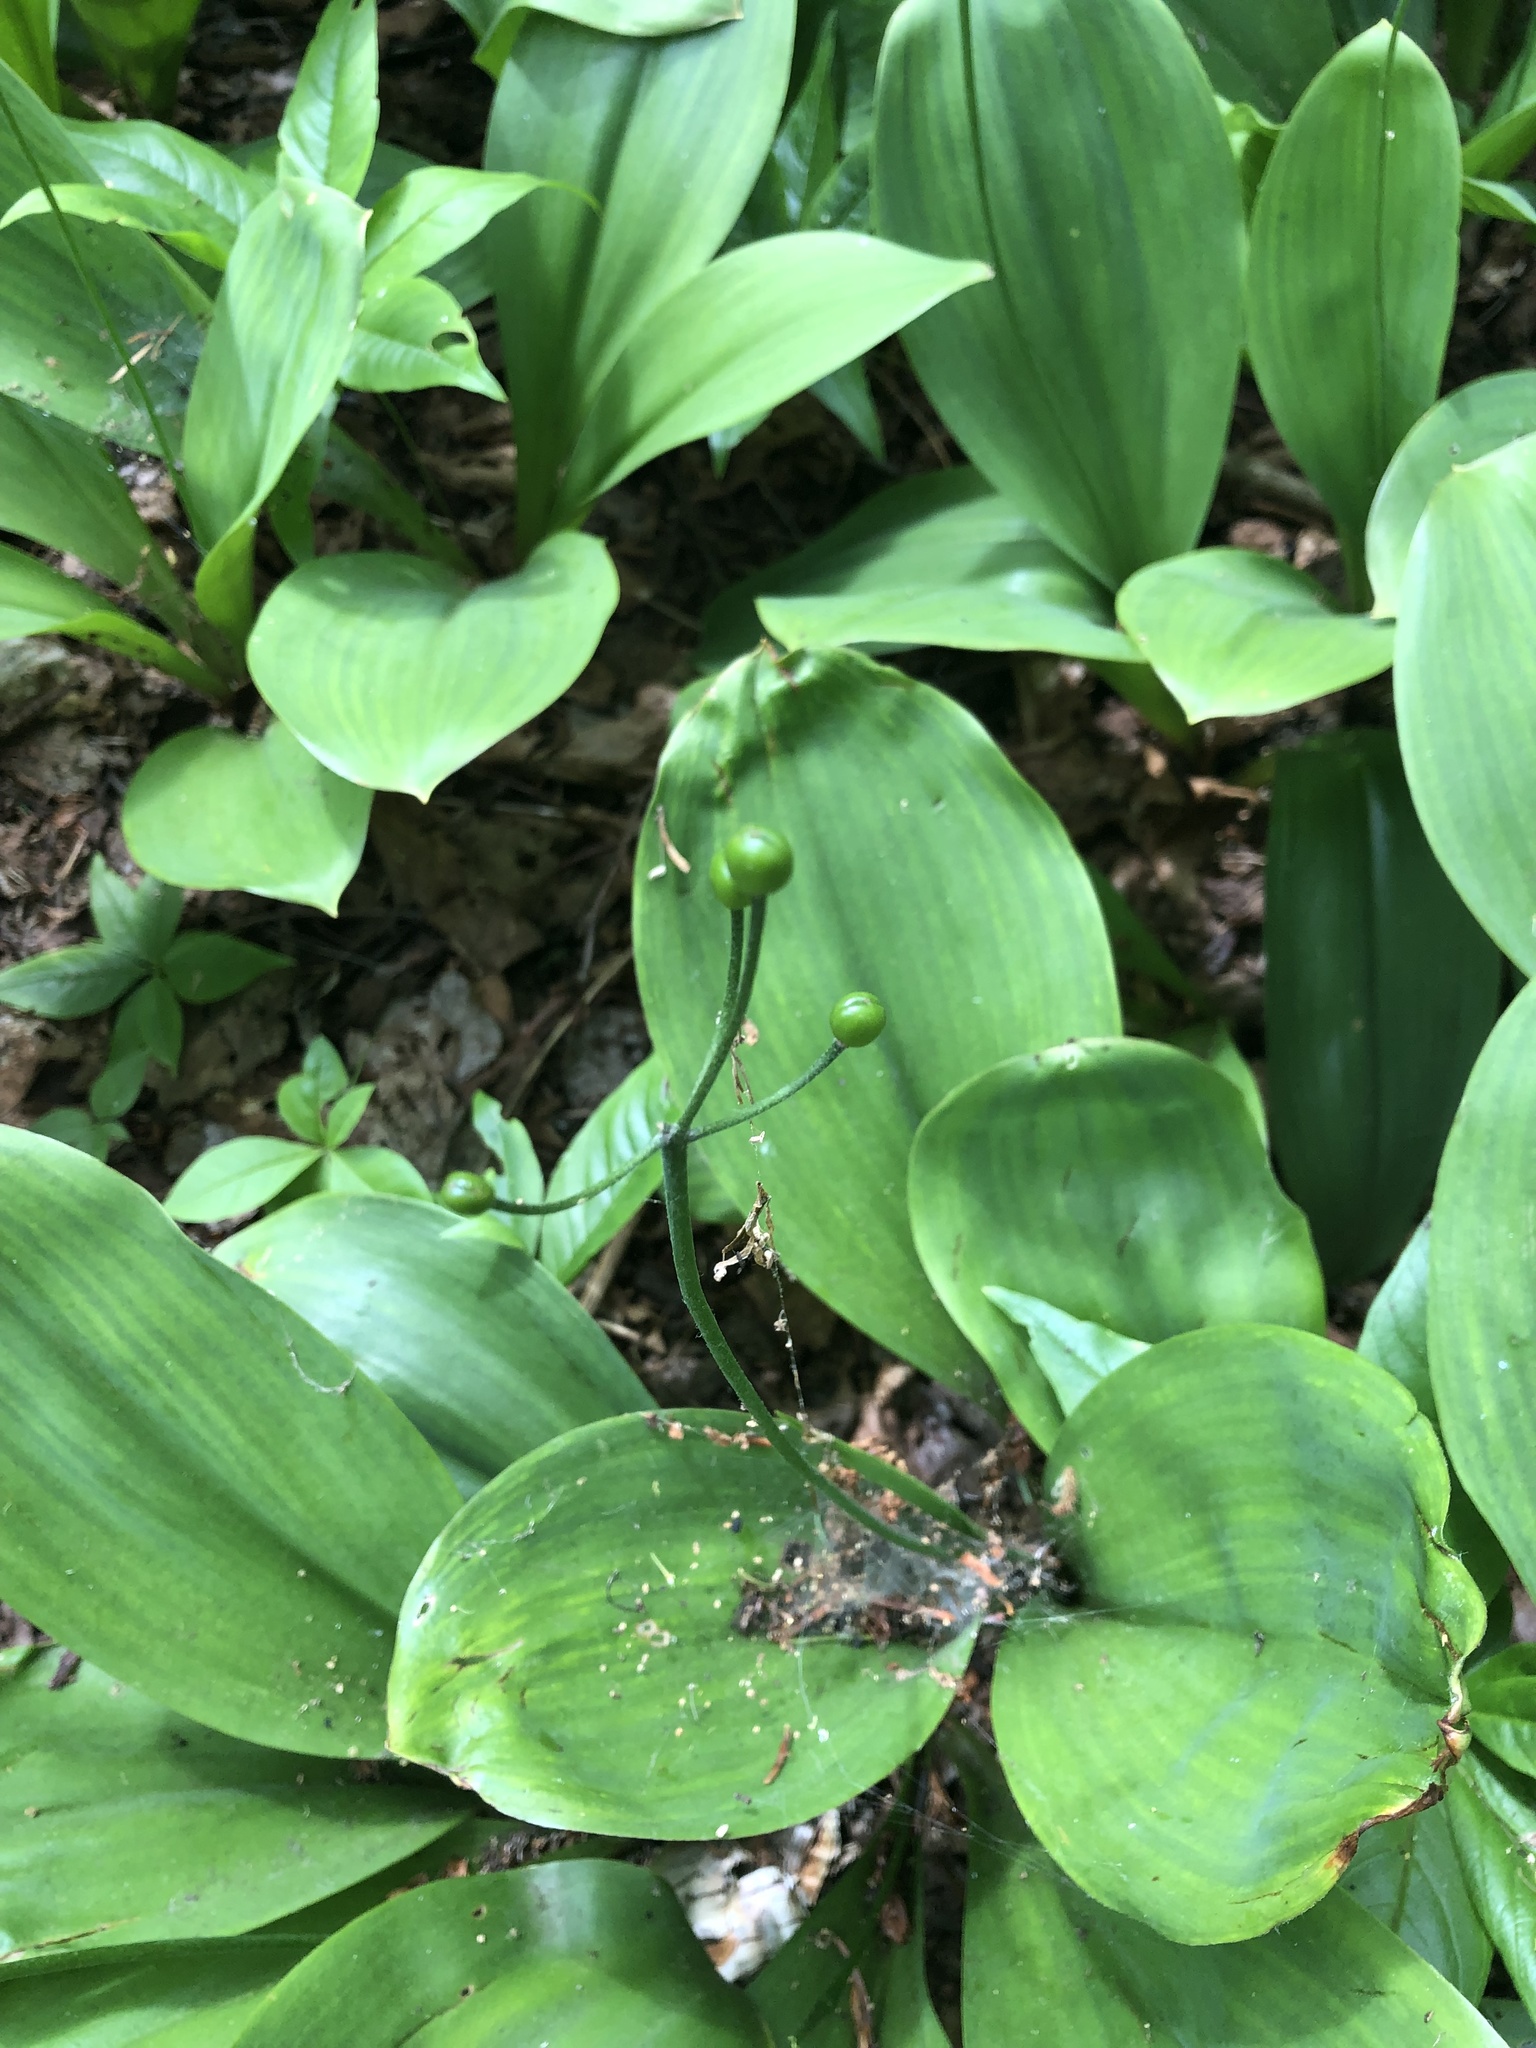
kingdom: Plantae
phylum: Tracheophyta
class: Liliopsida
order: Liliales
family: Liliaceae
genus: Clintonia
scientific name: Clintonia borealis
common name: Yellow clintonia
